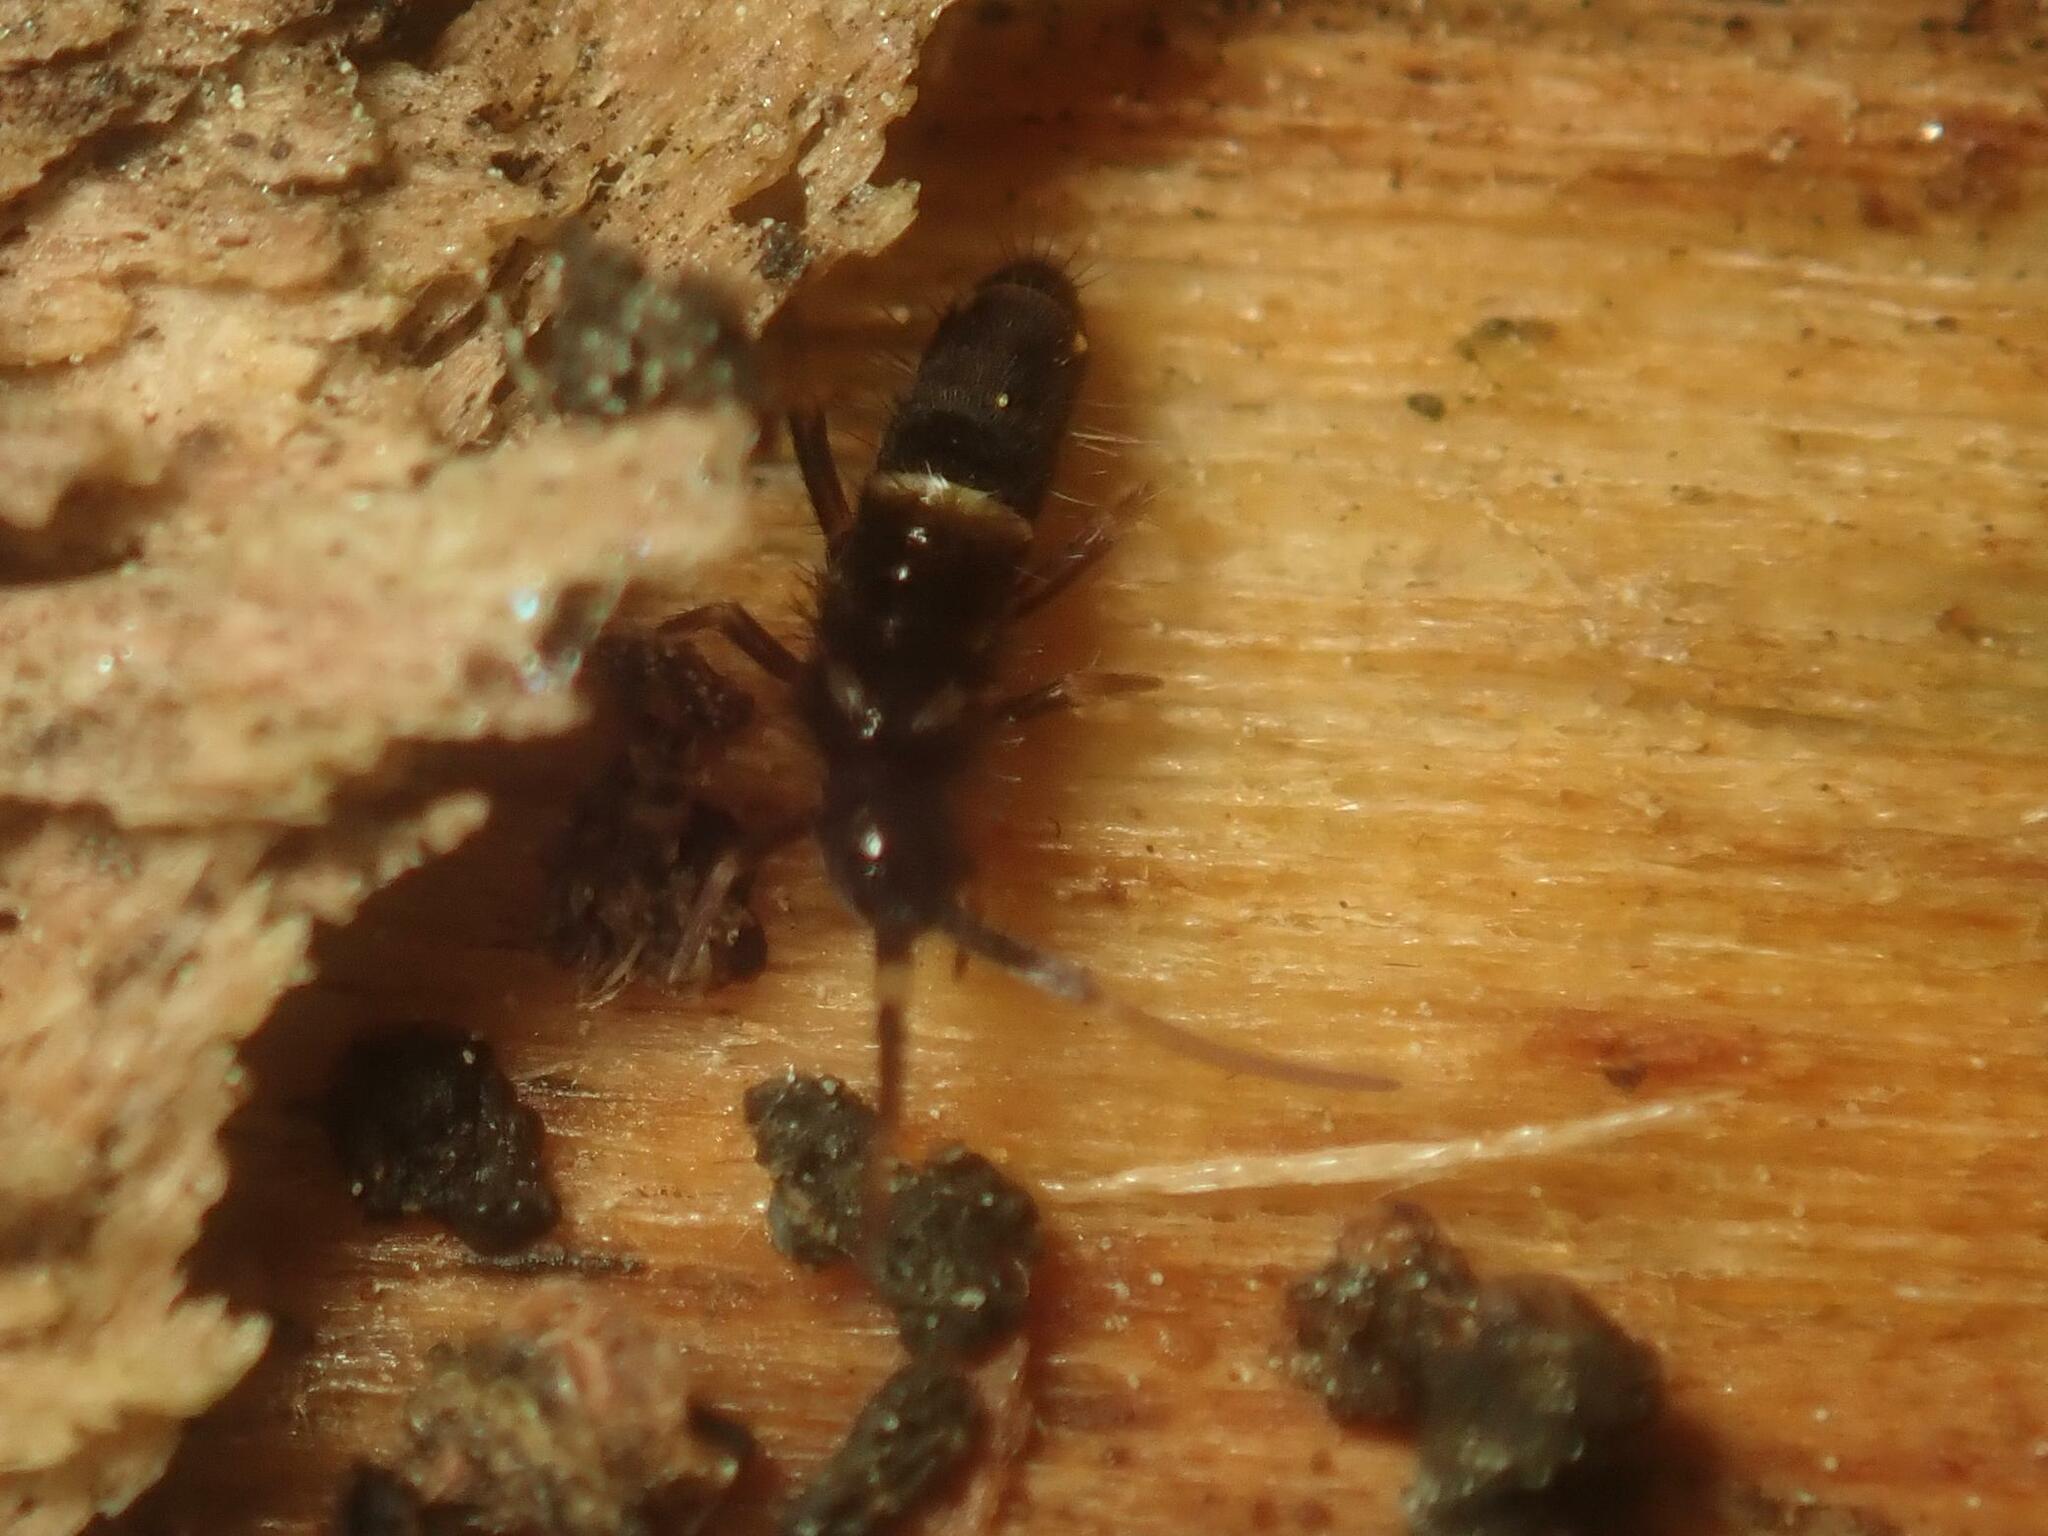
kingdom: Animalia
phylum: Arthropoda
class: Collembola
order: Entomobryomorpha
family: Orchesellidae
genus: Orchesella
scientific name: Orchesella cincta
